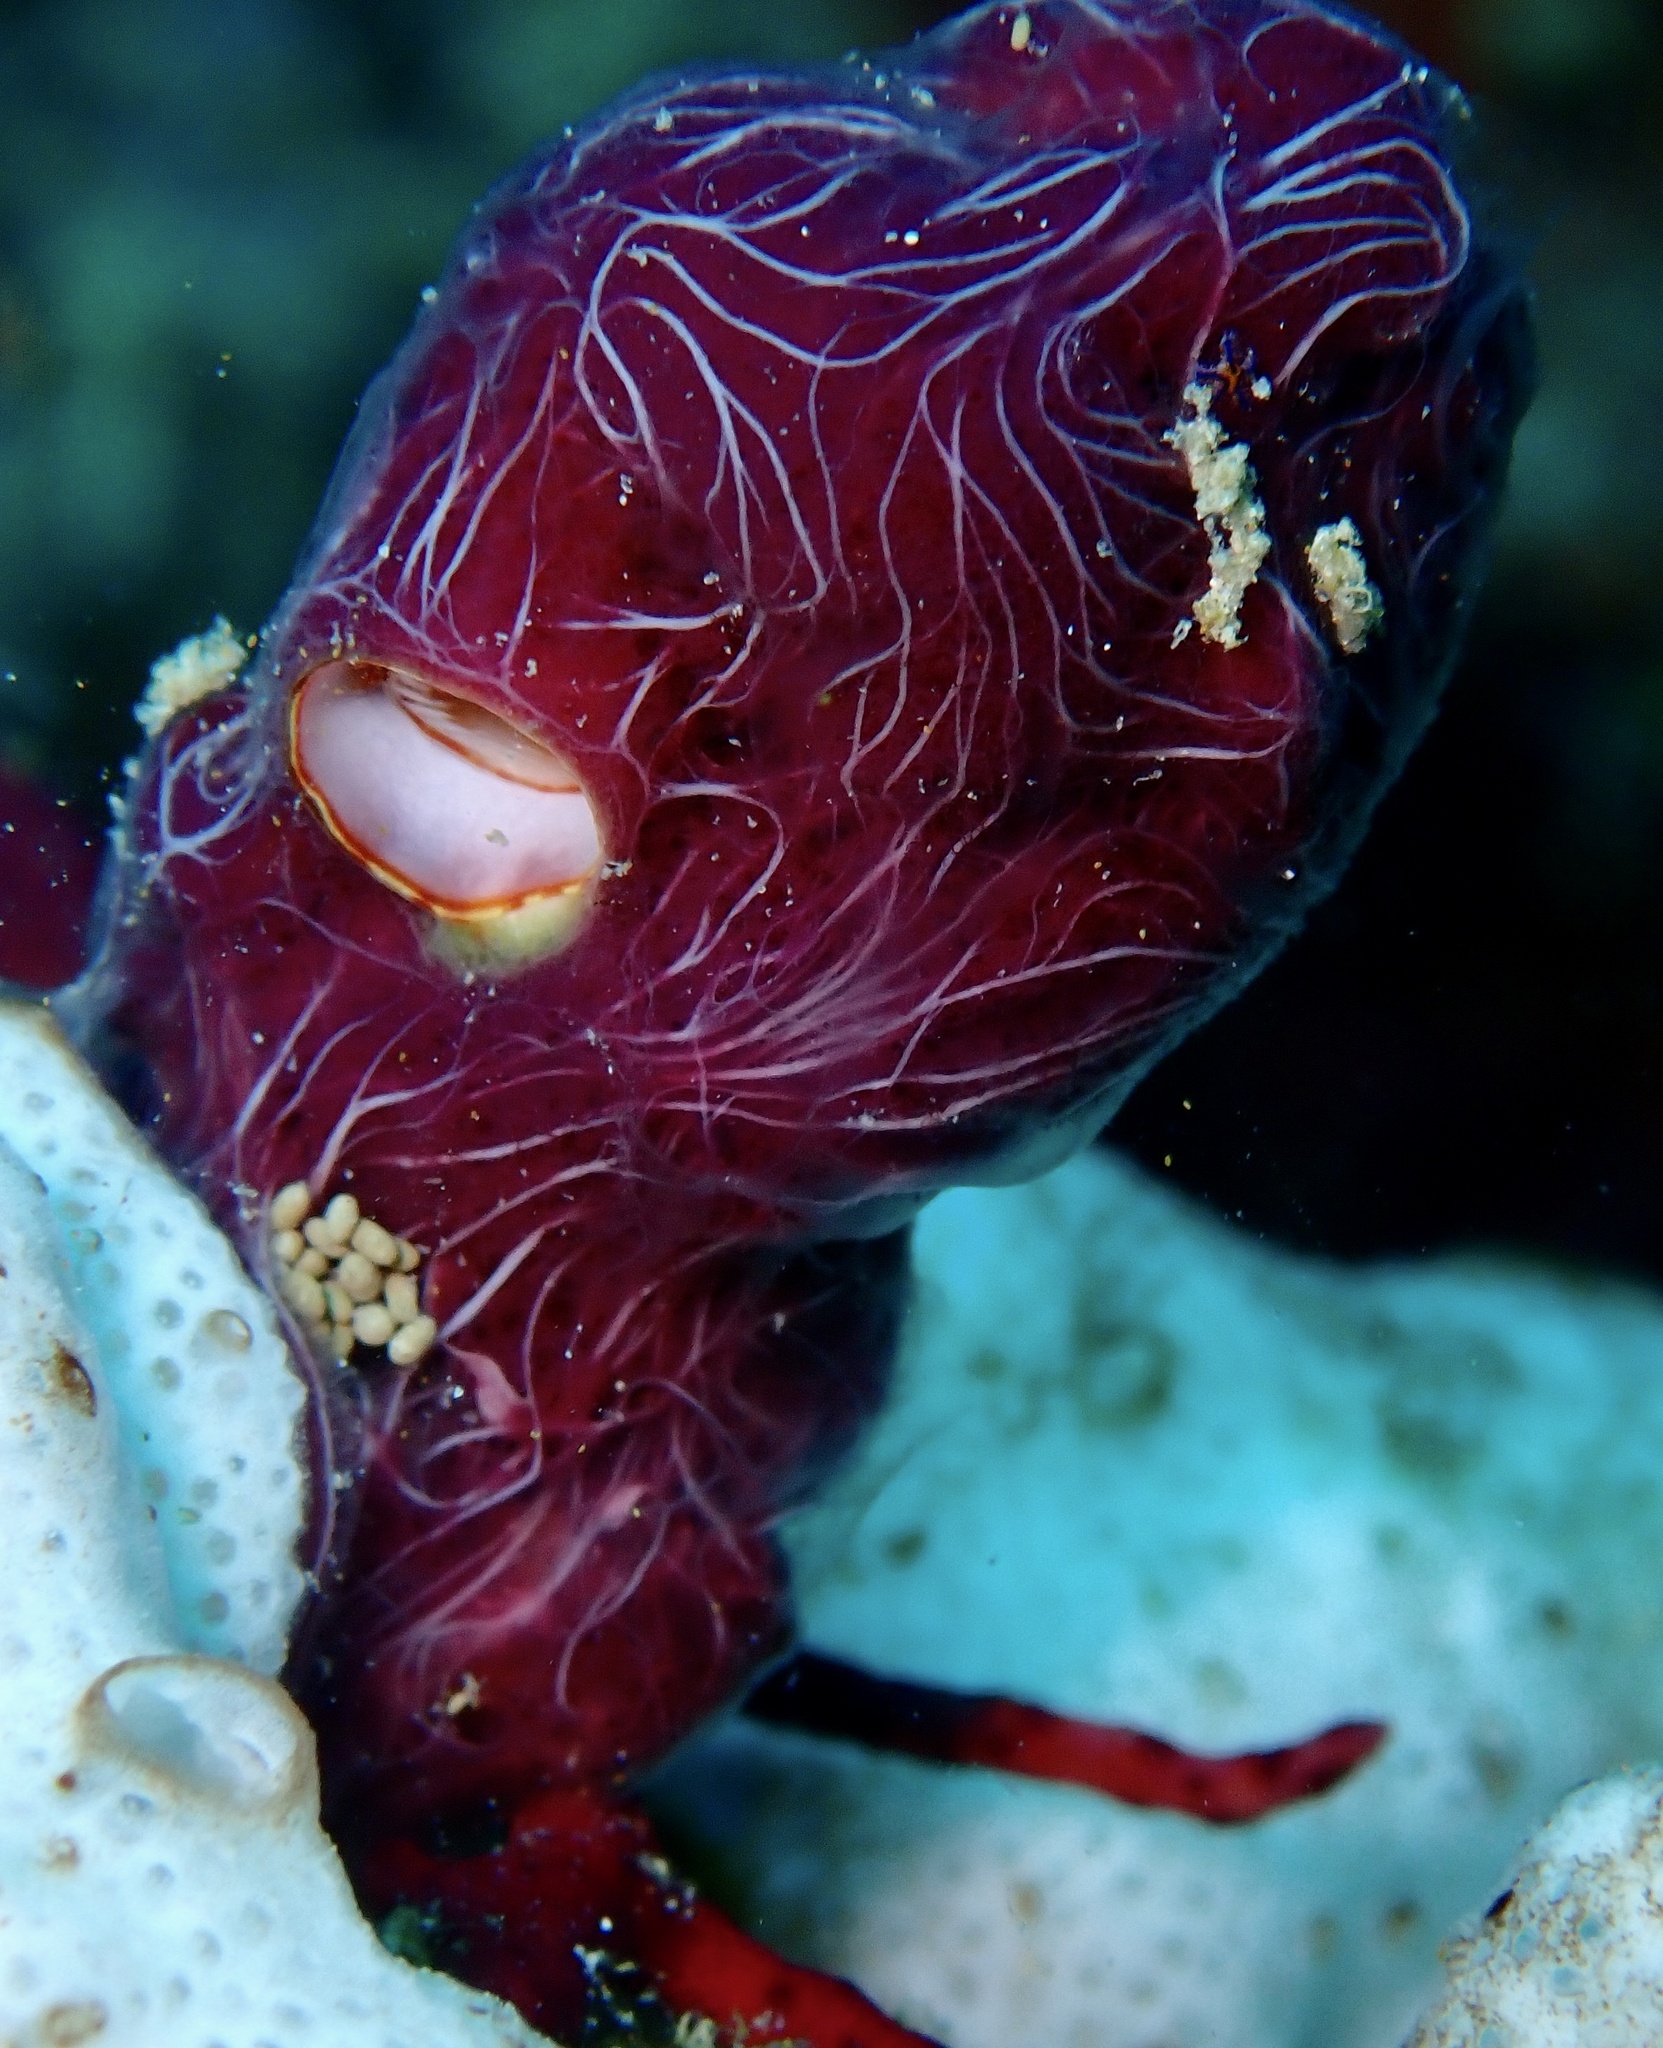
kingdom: Animalia
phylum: Porifera
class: Demospongiae
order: Haplosclerida
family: Chalinidae
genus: Chalinula
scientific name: Chalinula nematifera
